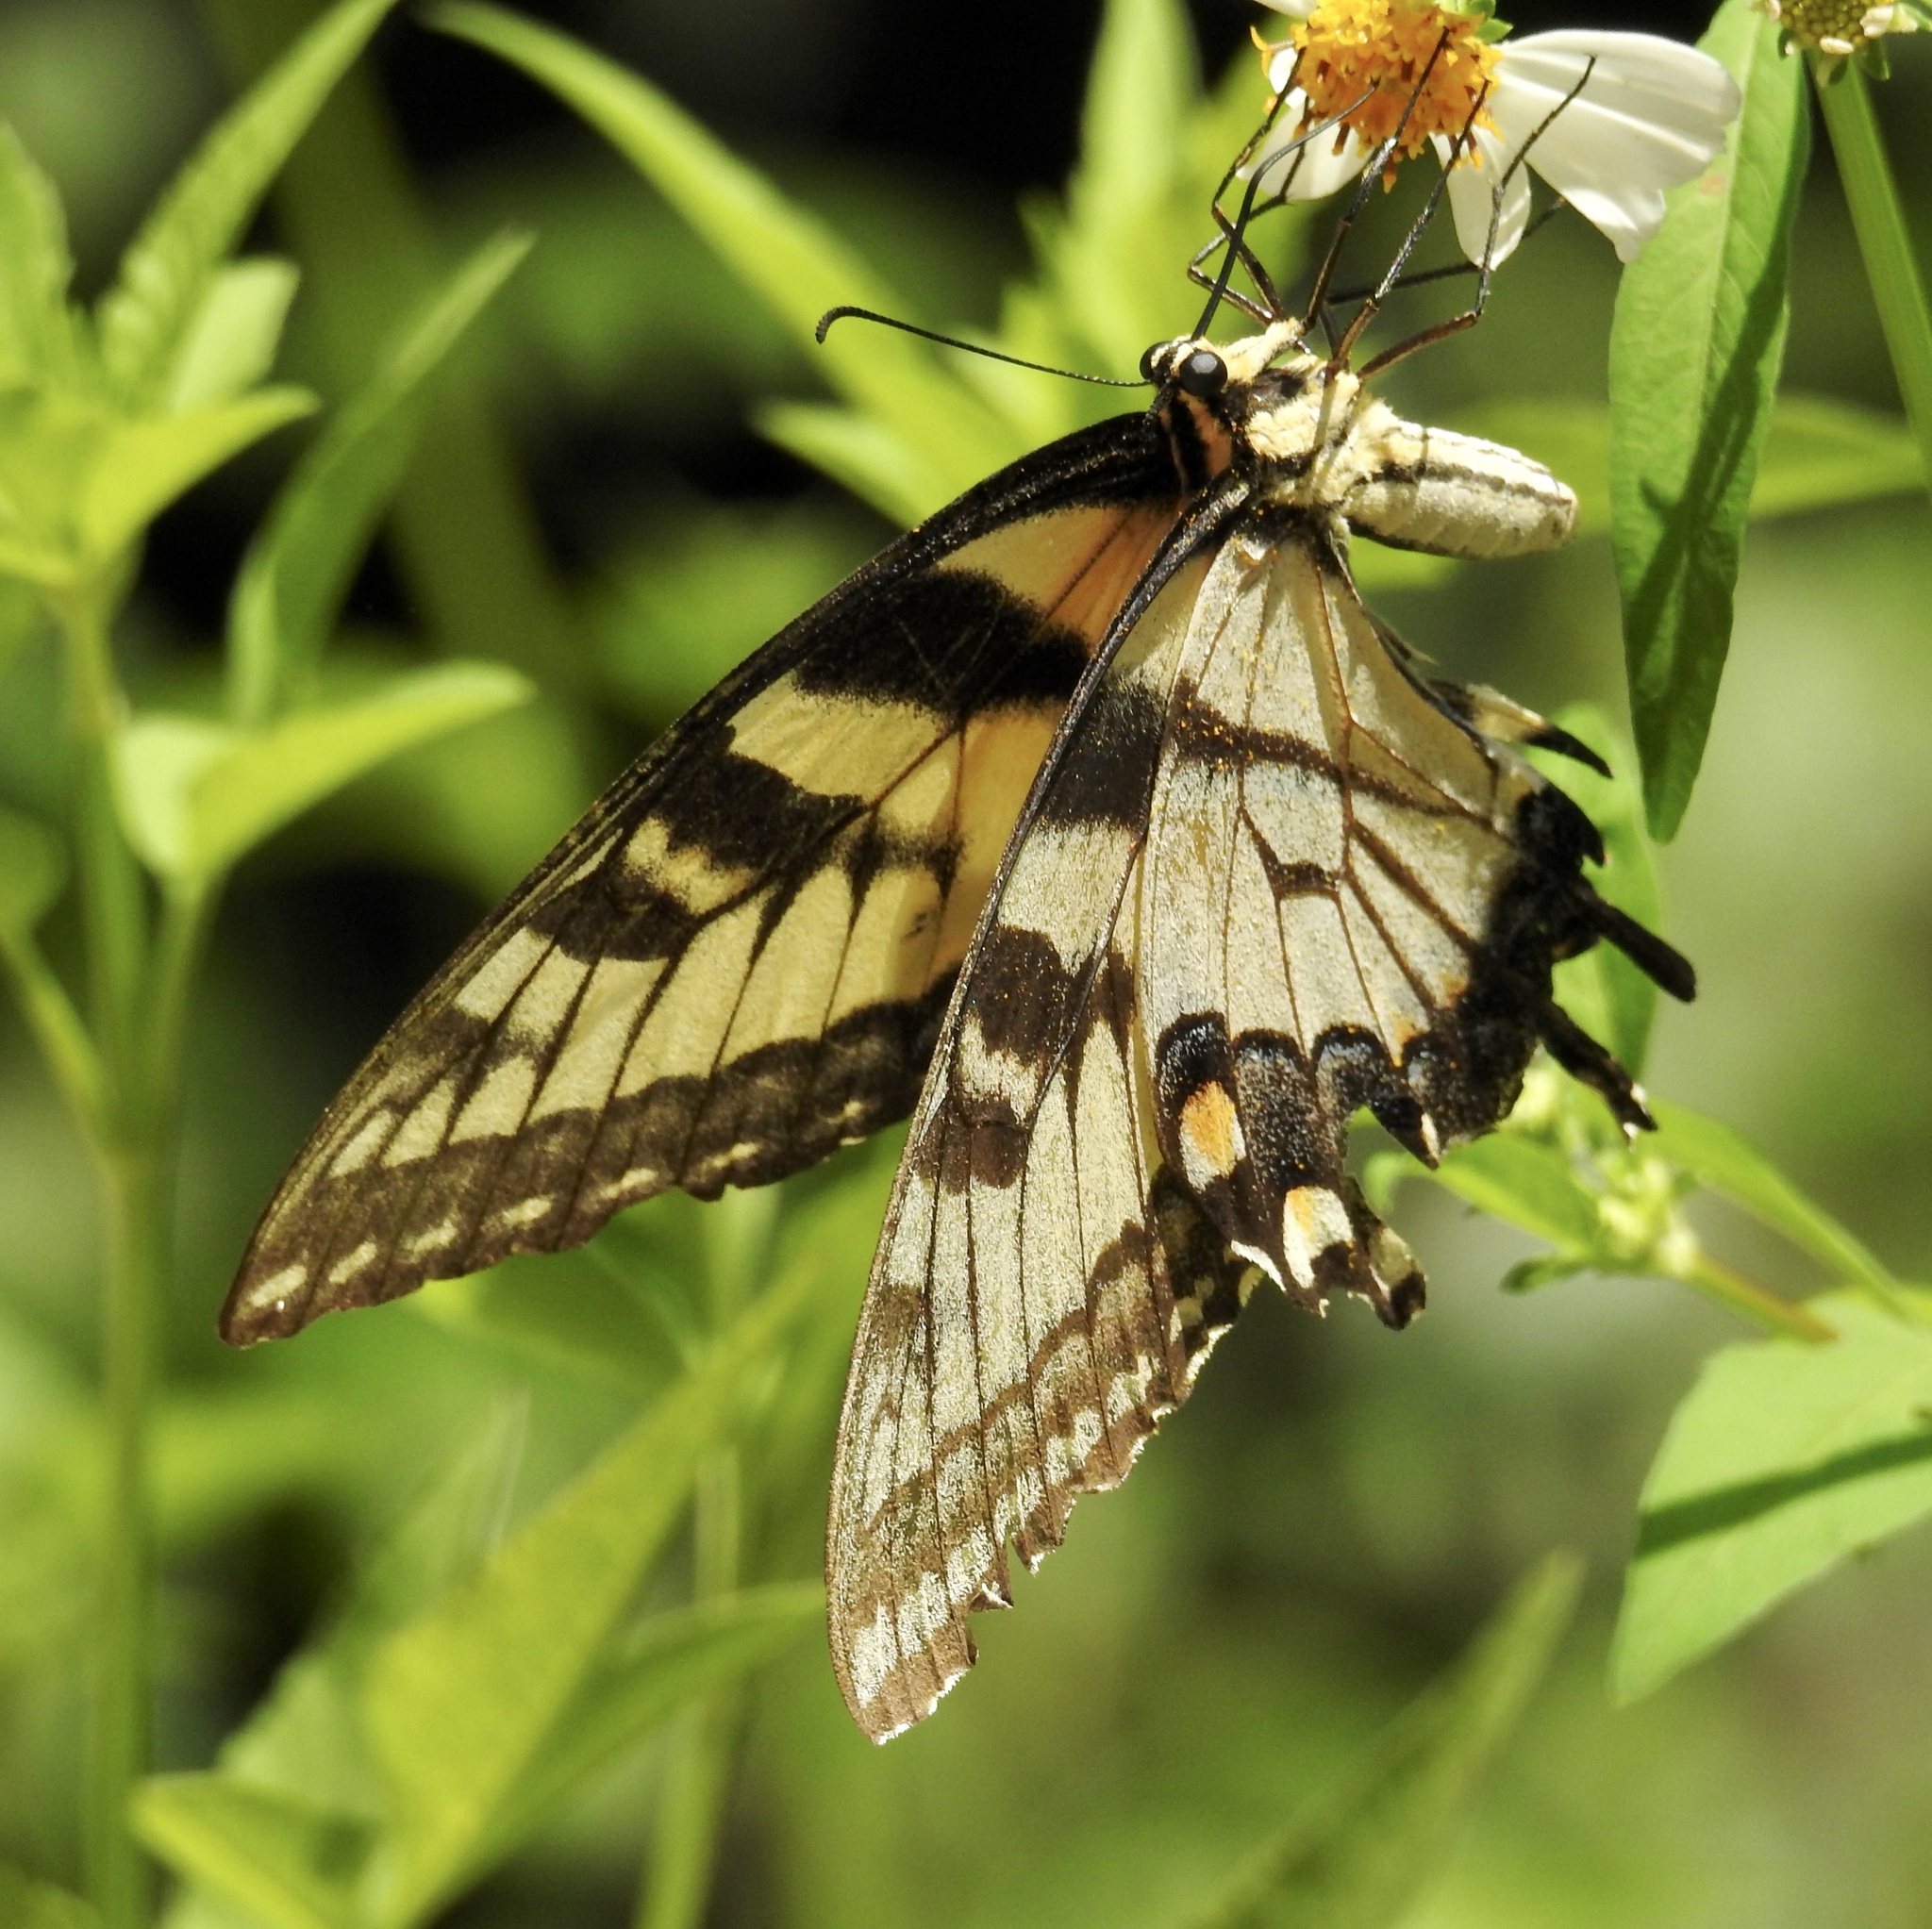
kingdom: Animalia
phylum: Arthropoda
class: Insecta
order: Lepidoptera
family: Papilionidae
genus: Papilio
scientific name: Papilio glaucus
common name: Tiger swallowtail
